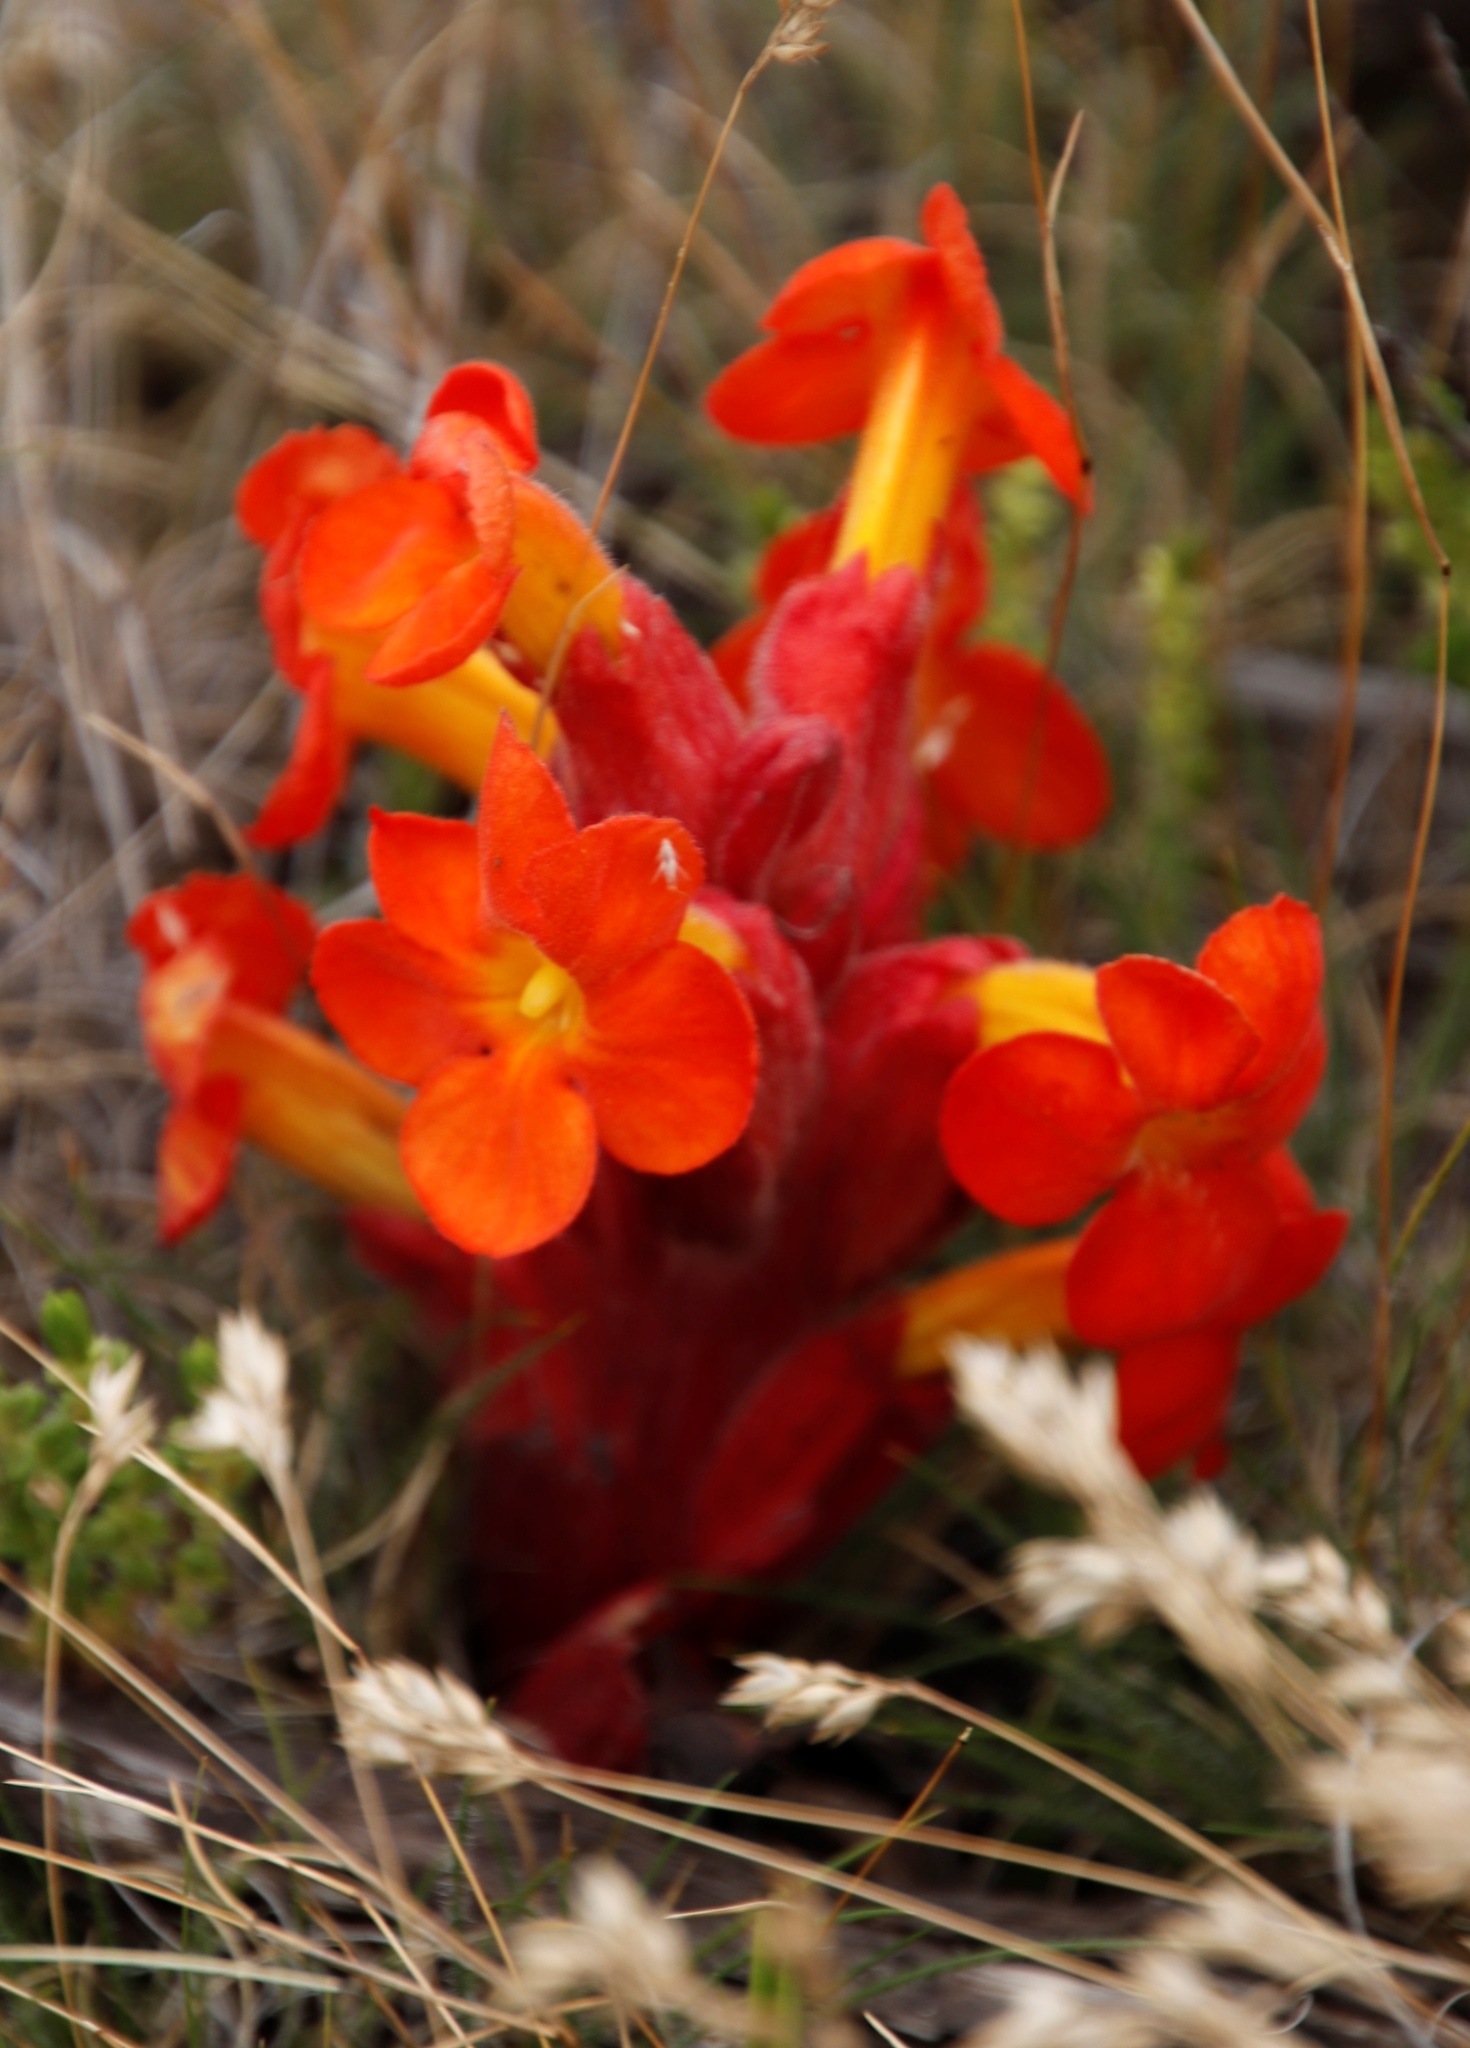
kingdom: Plantae
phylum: Tracheophyta
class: Magnoliopsida
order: Lamiales
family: Orobanchaceae
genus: Harveya
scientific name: Harveya scarlatina
